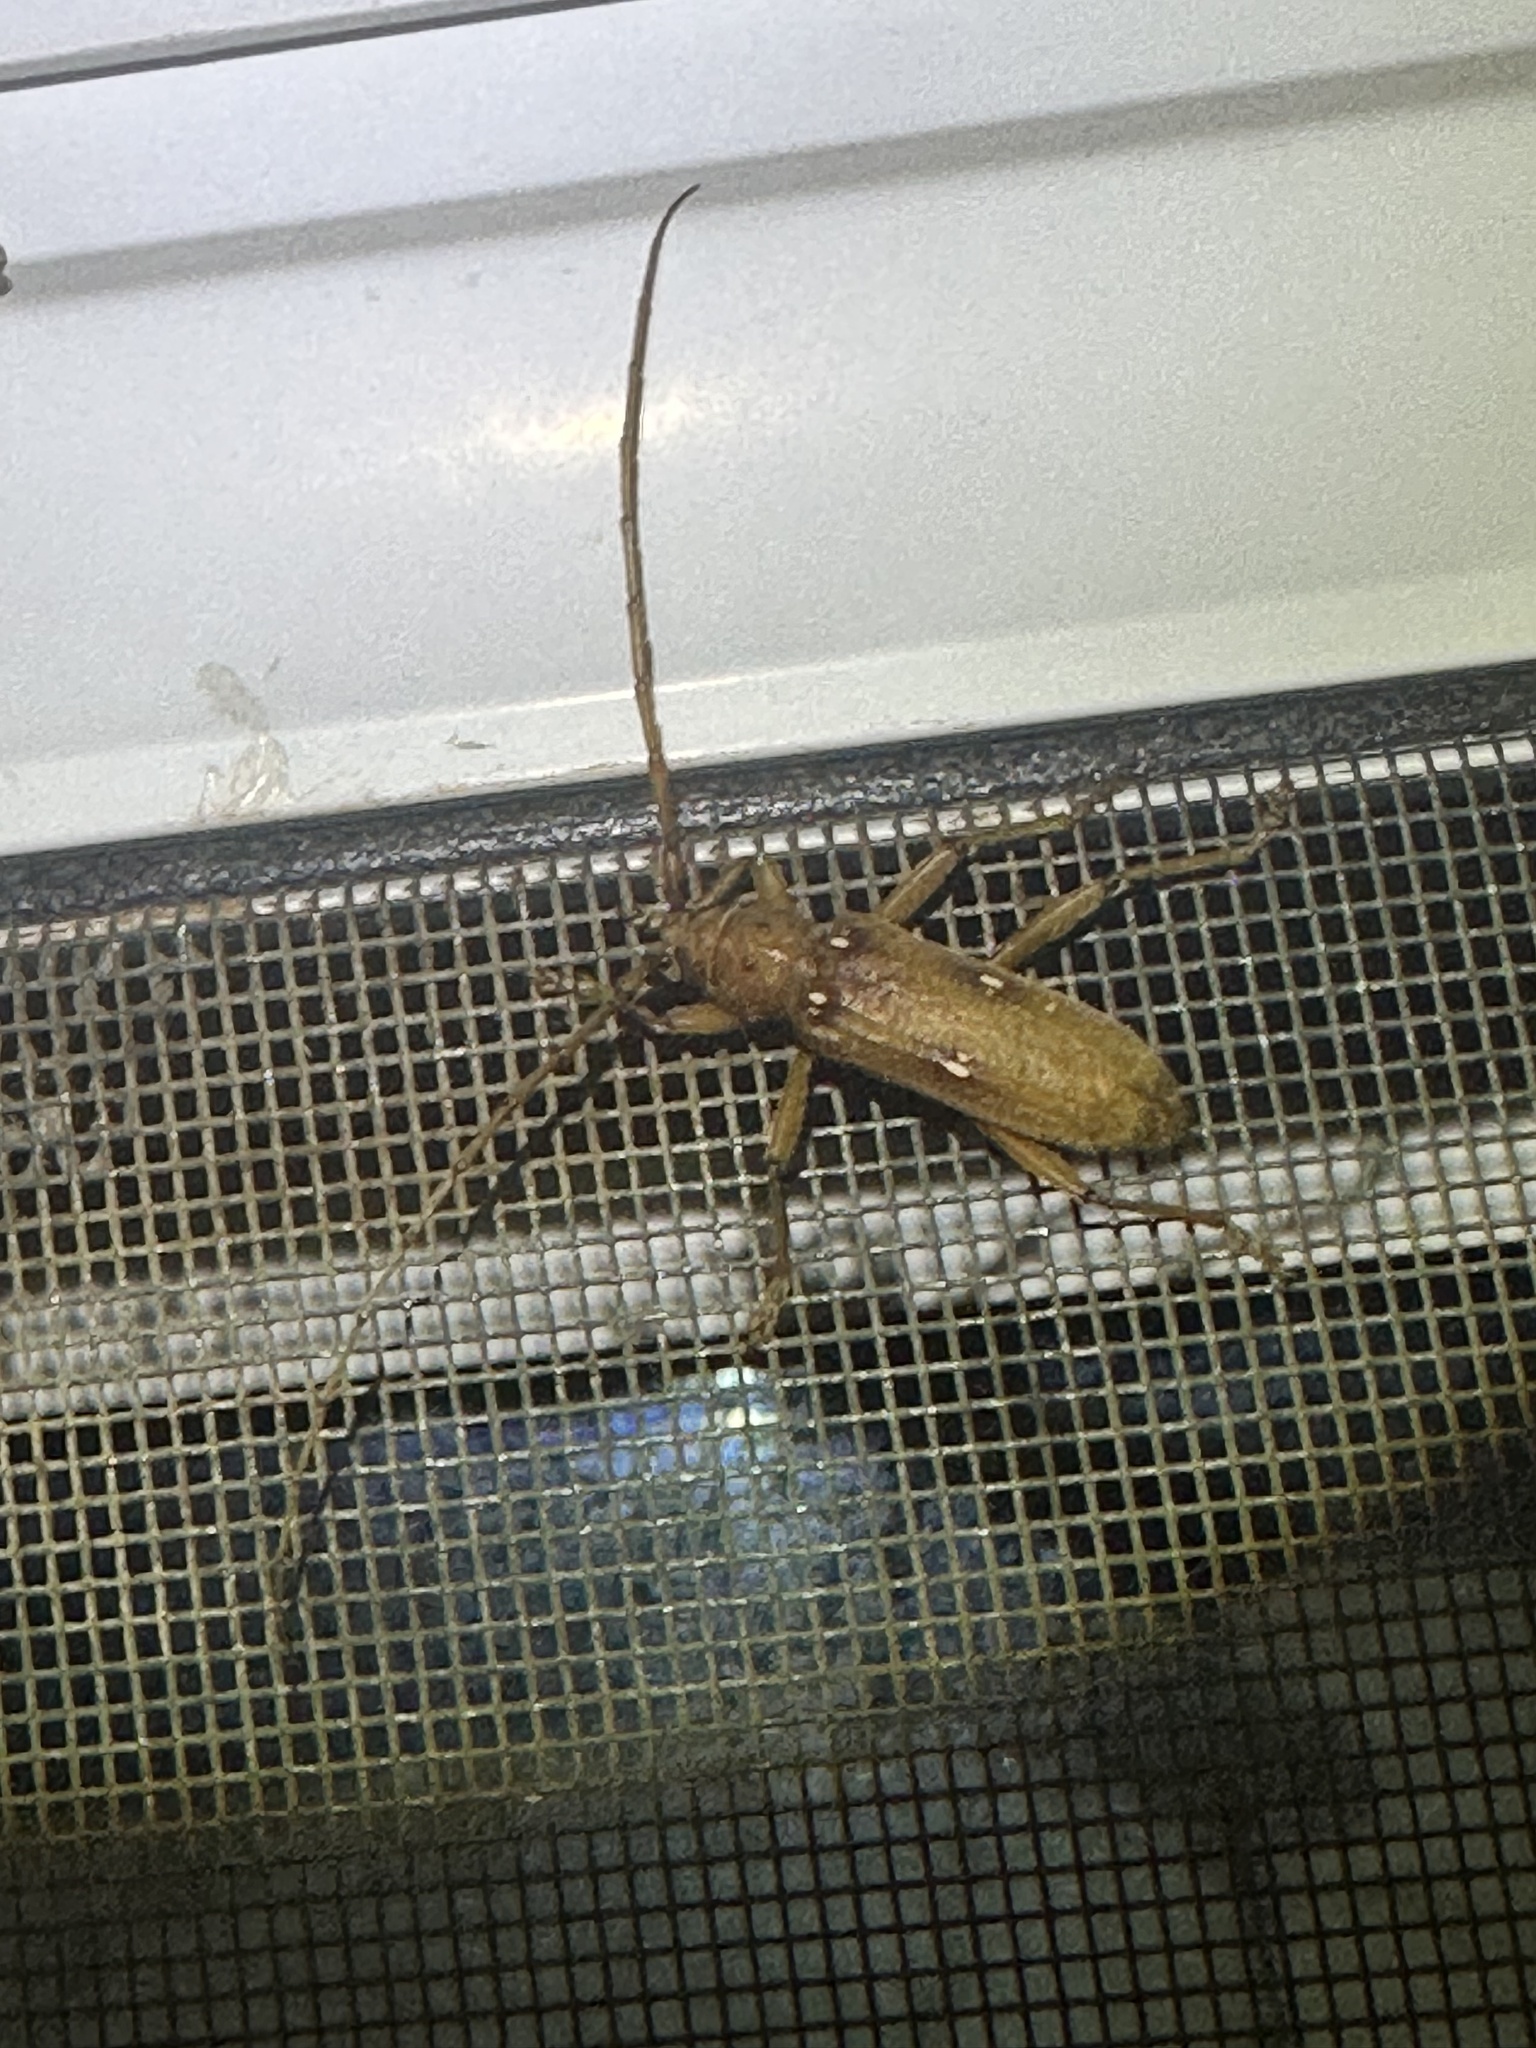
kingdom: Animalia
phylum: Arthropoda
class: Insecta
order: Coleoptera
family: Cerambycidae
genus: Eburia
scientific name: Eburia haldemani
